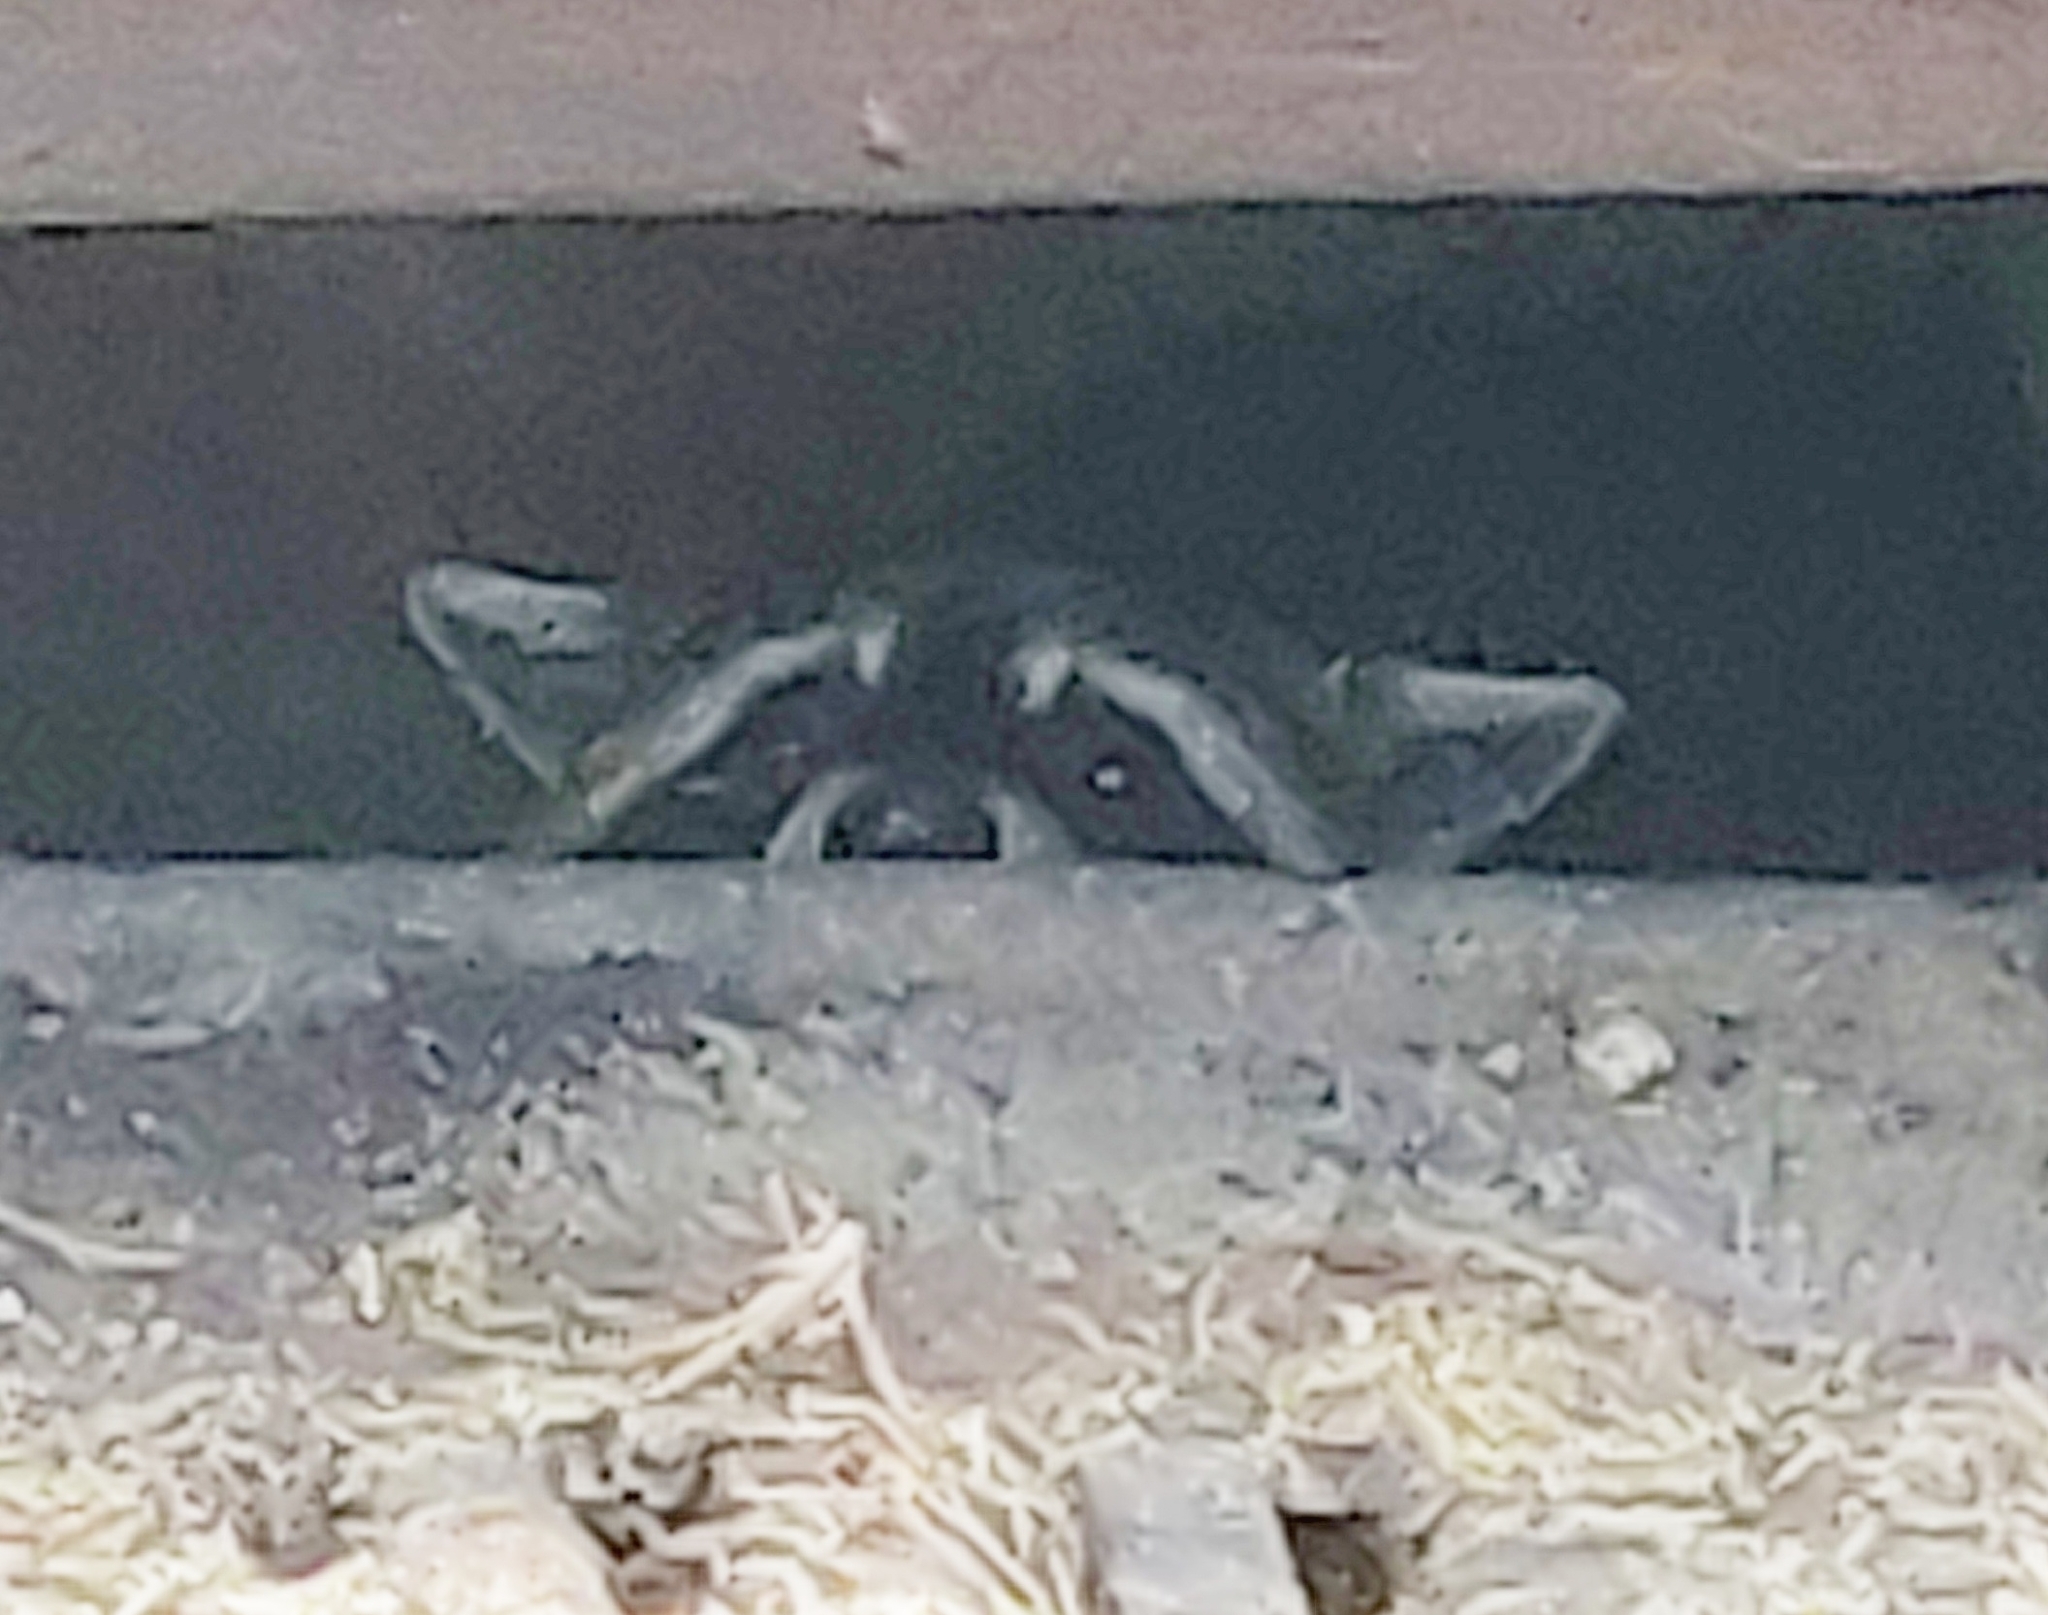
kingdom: Animalia
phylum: Chordata
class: Mammalia
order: Carnivora
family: Procyonidae
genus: Procyon
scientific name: Procyon lotor
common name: Raccoon
